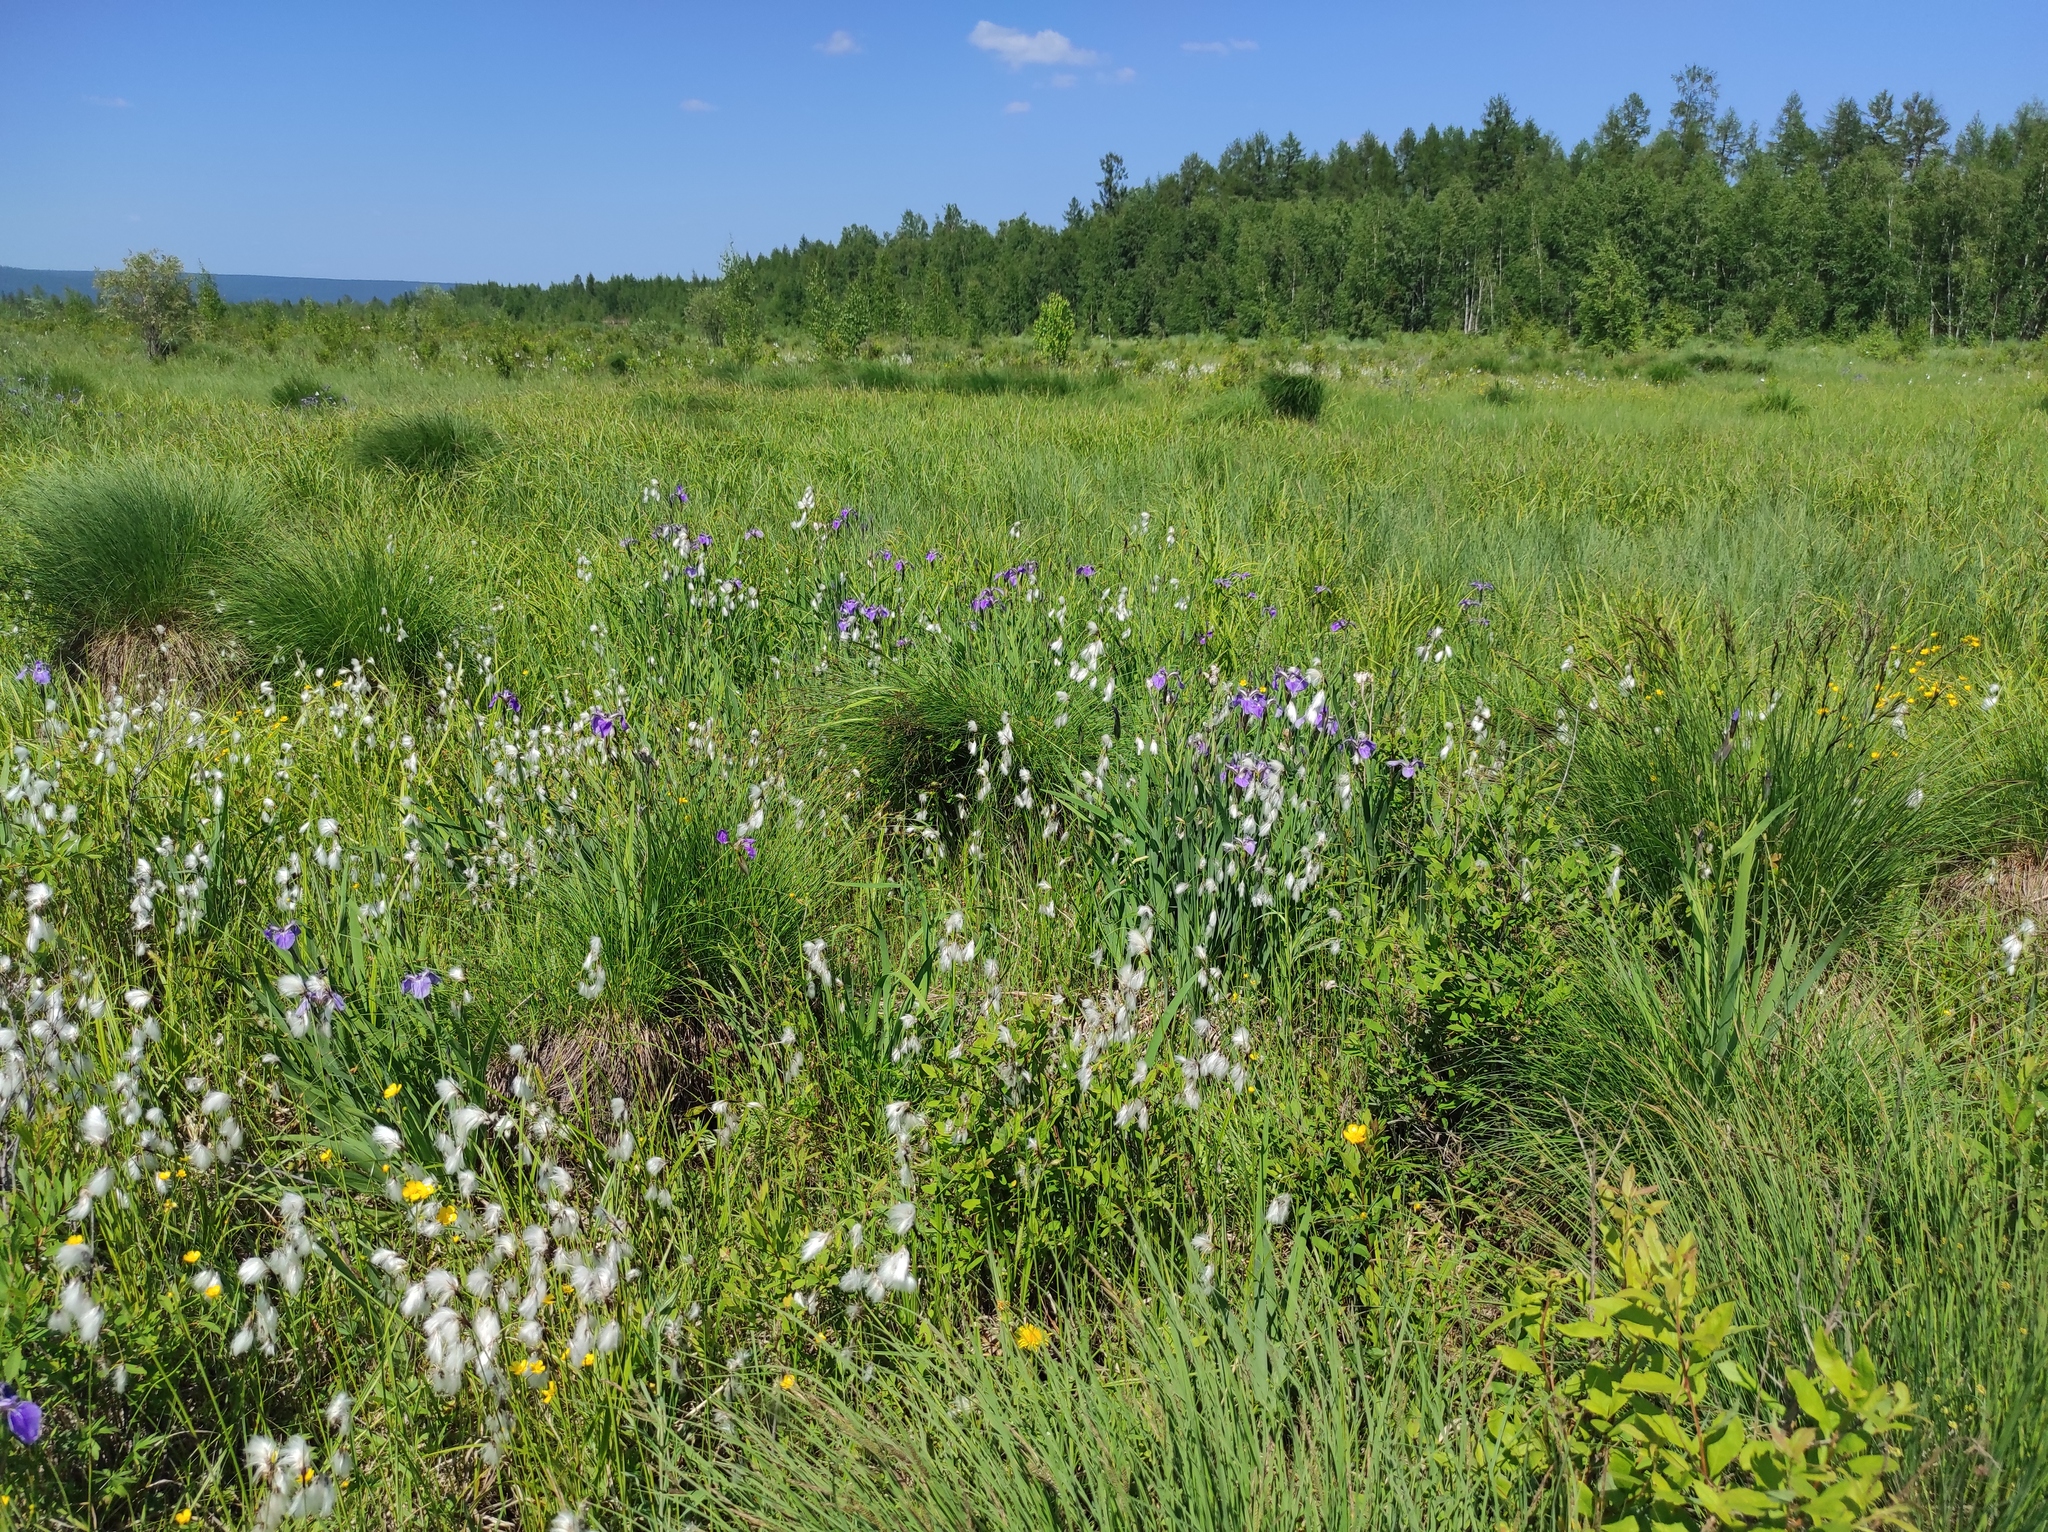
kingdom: Plantae
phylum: Tracheophyta
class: Liliopsida
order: Asparagales
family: Iridaceae
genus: Iris
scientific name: Iris setosa
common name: Arctic blue flag
